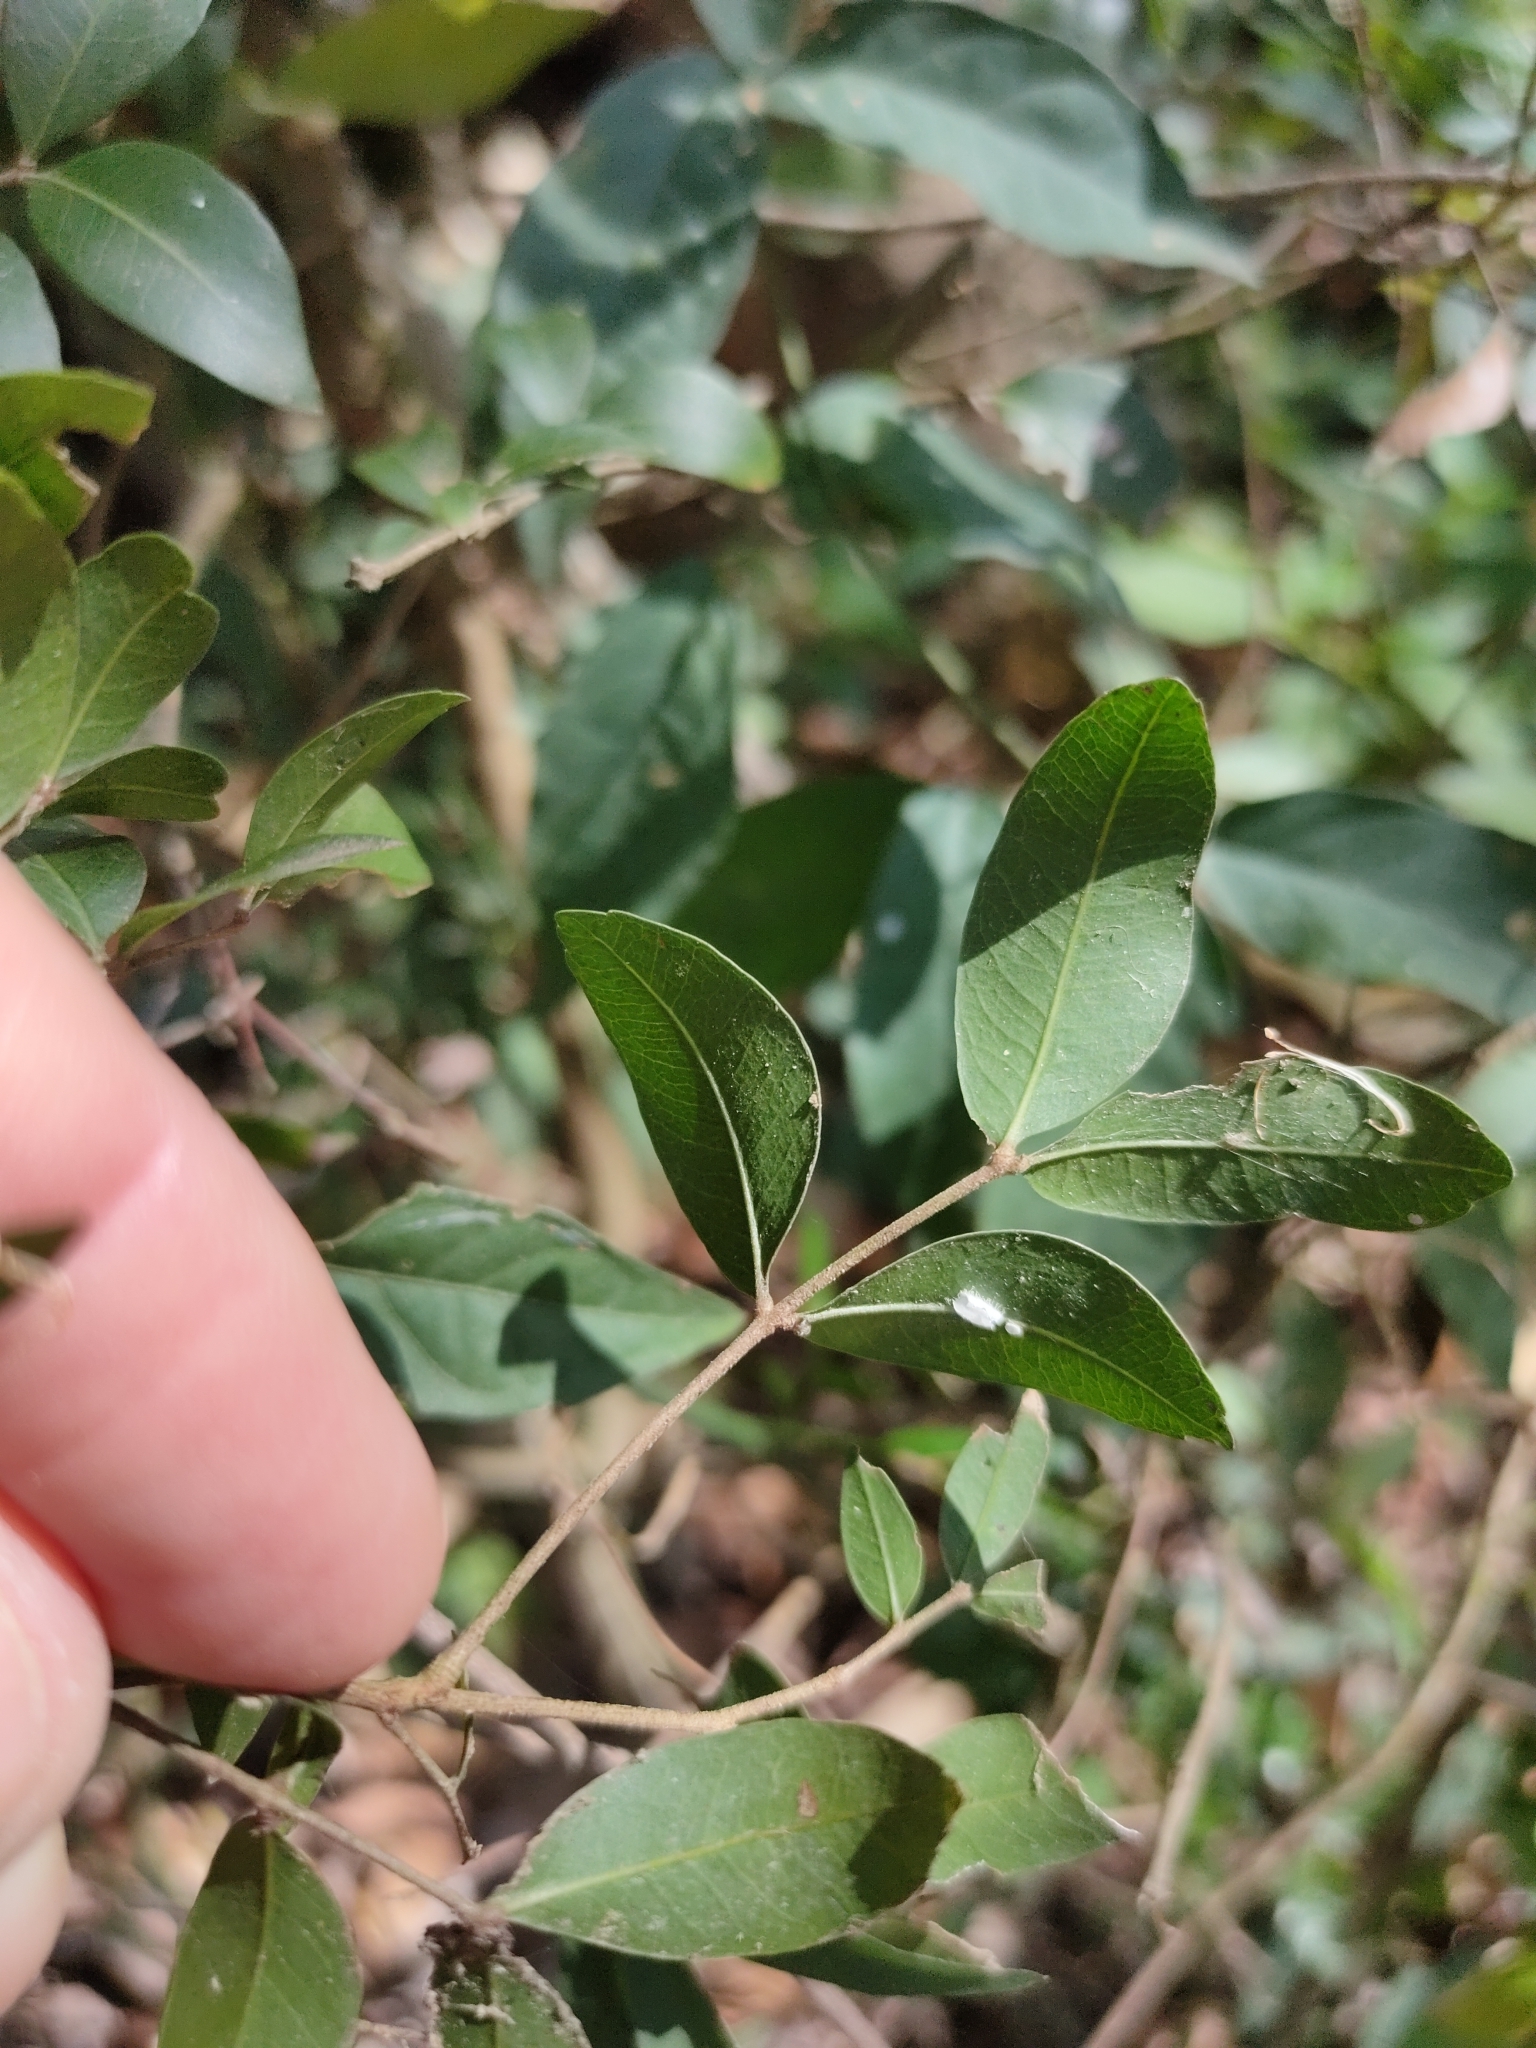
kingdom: Plantae
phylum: Tracheophyta
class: Magnoliopsida
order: Sapindales
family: Sapindaceae
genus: Arytera
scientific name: Arytera microphylla
